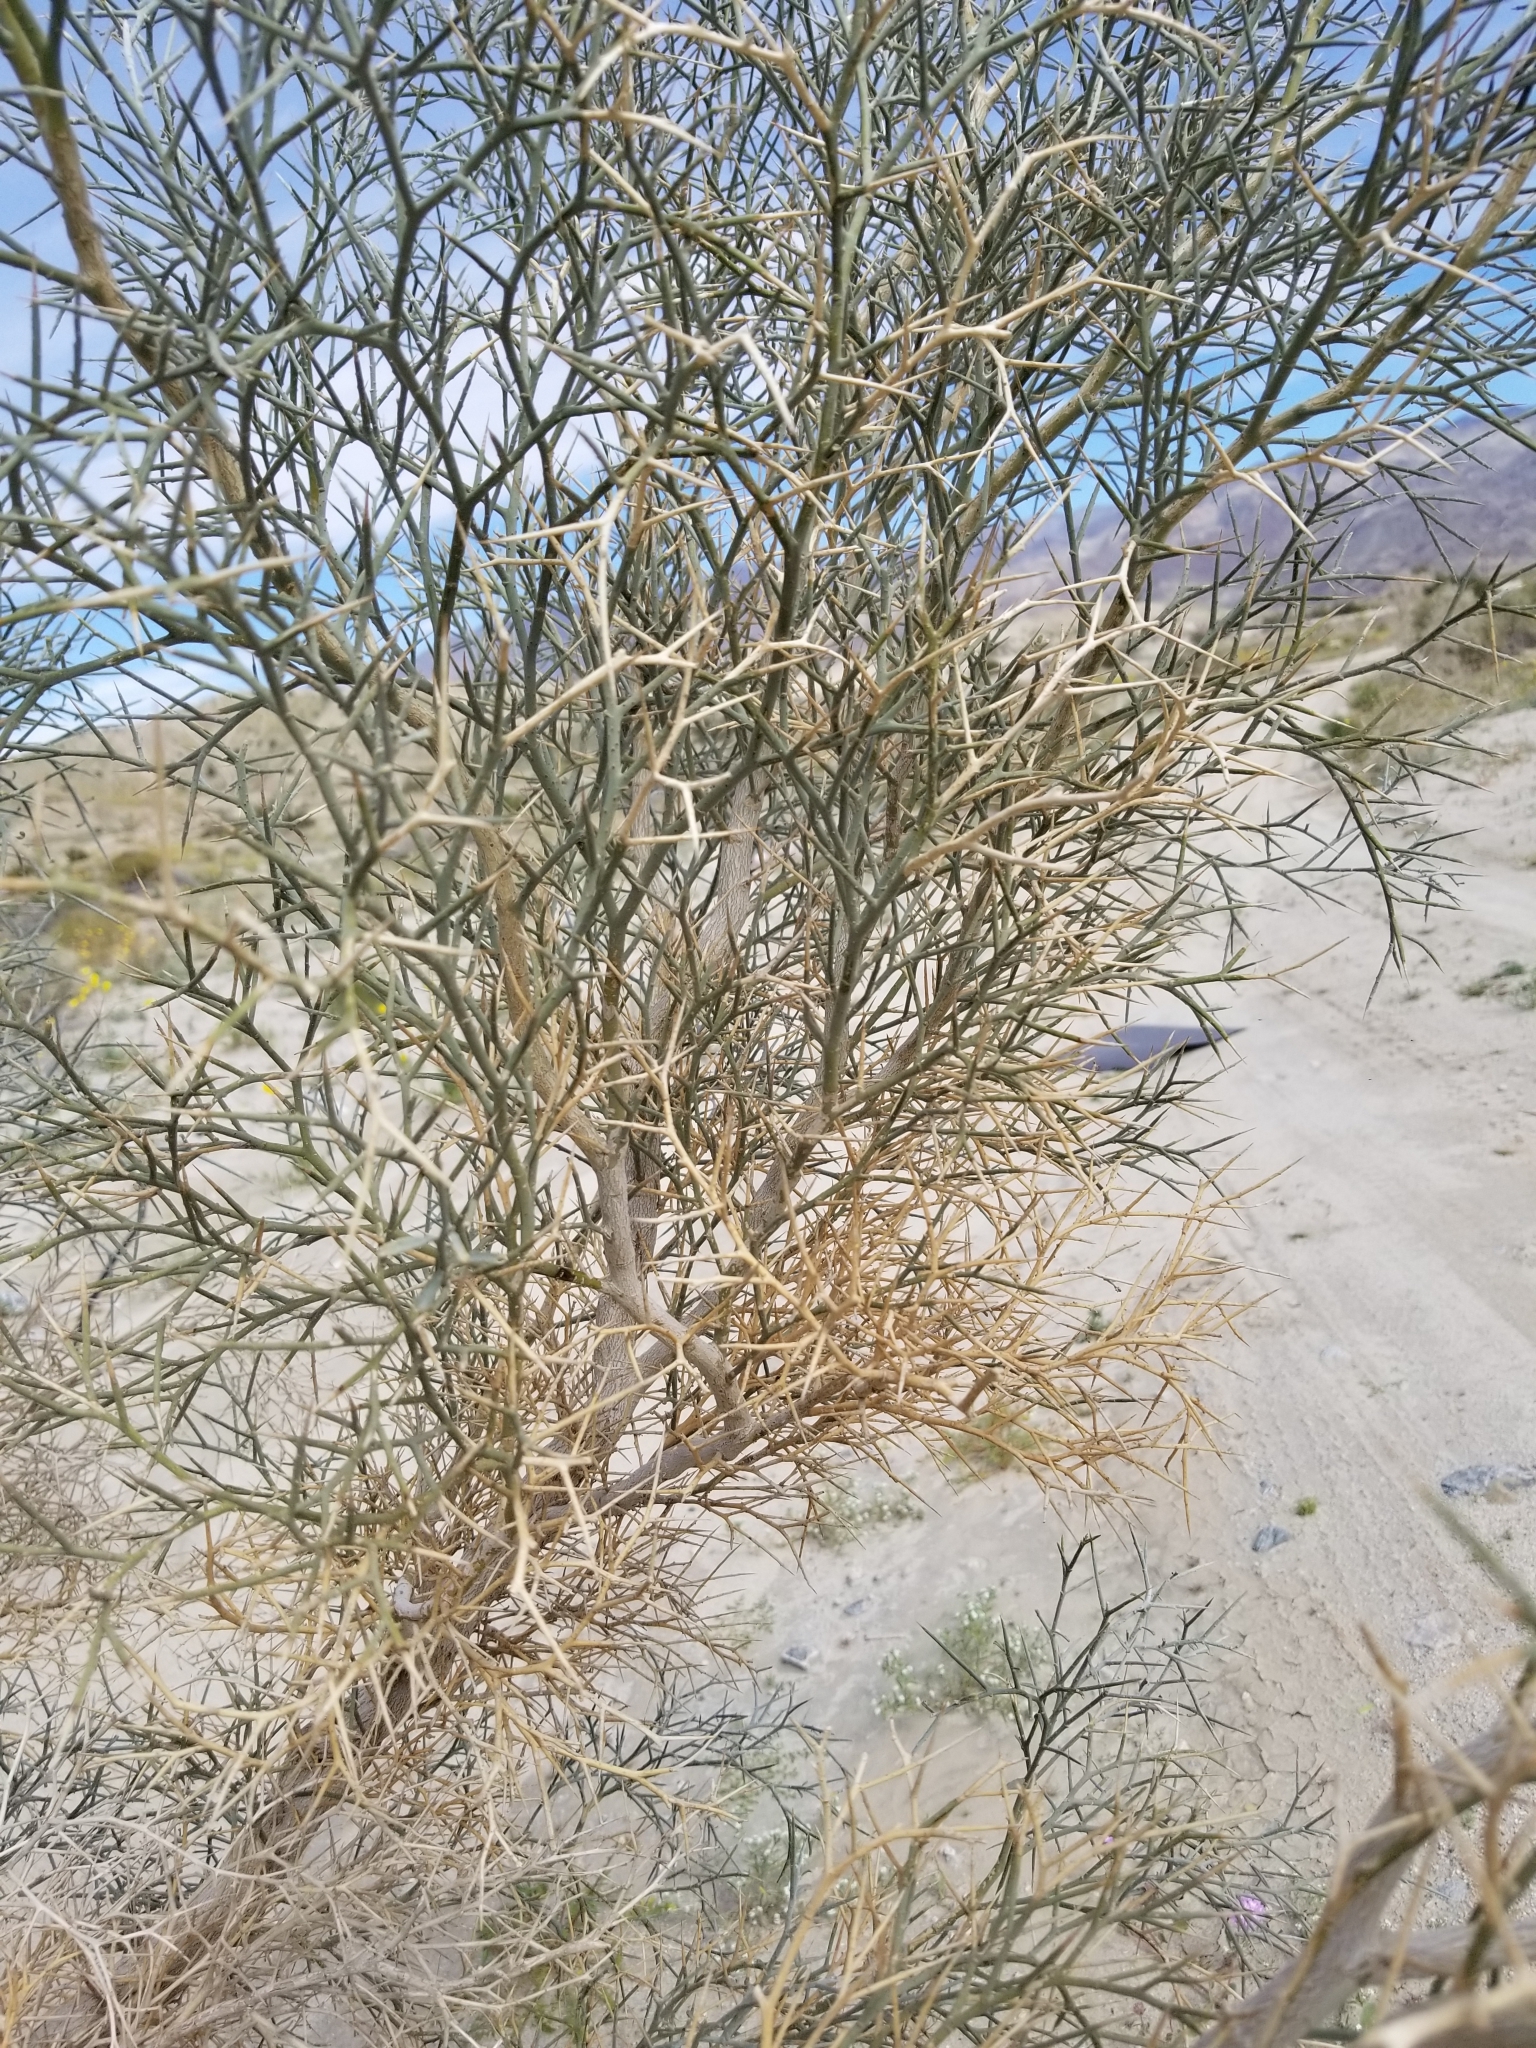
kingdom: Plantae
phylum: Tracheophyta
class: Magnoliopsida
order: Fabales
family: Fabaceae
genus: Psorothamnus
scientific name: Psorothamnus spinosus
